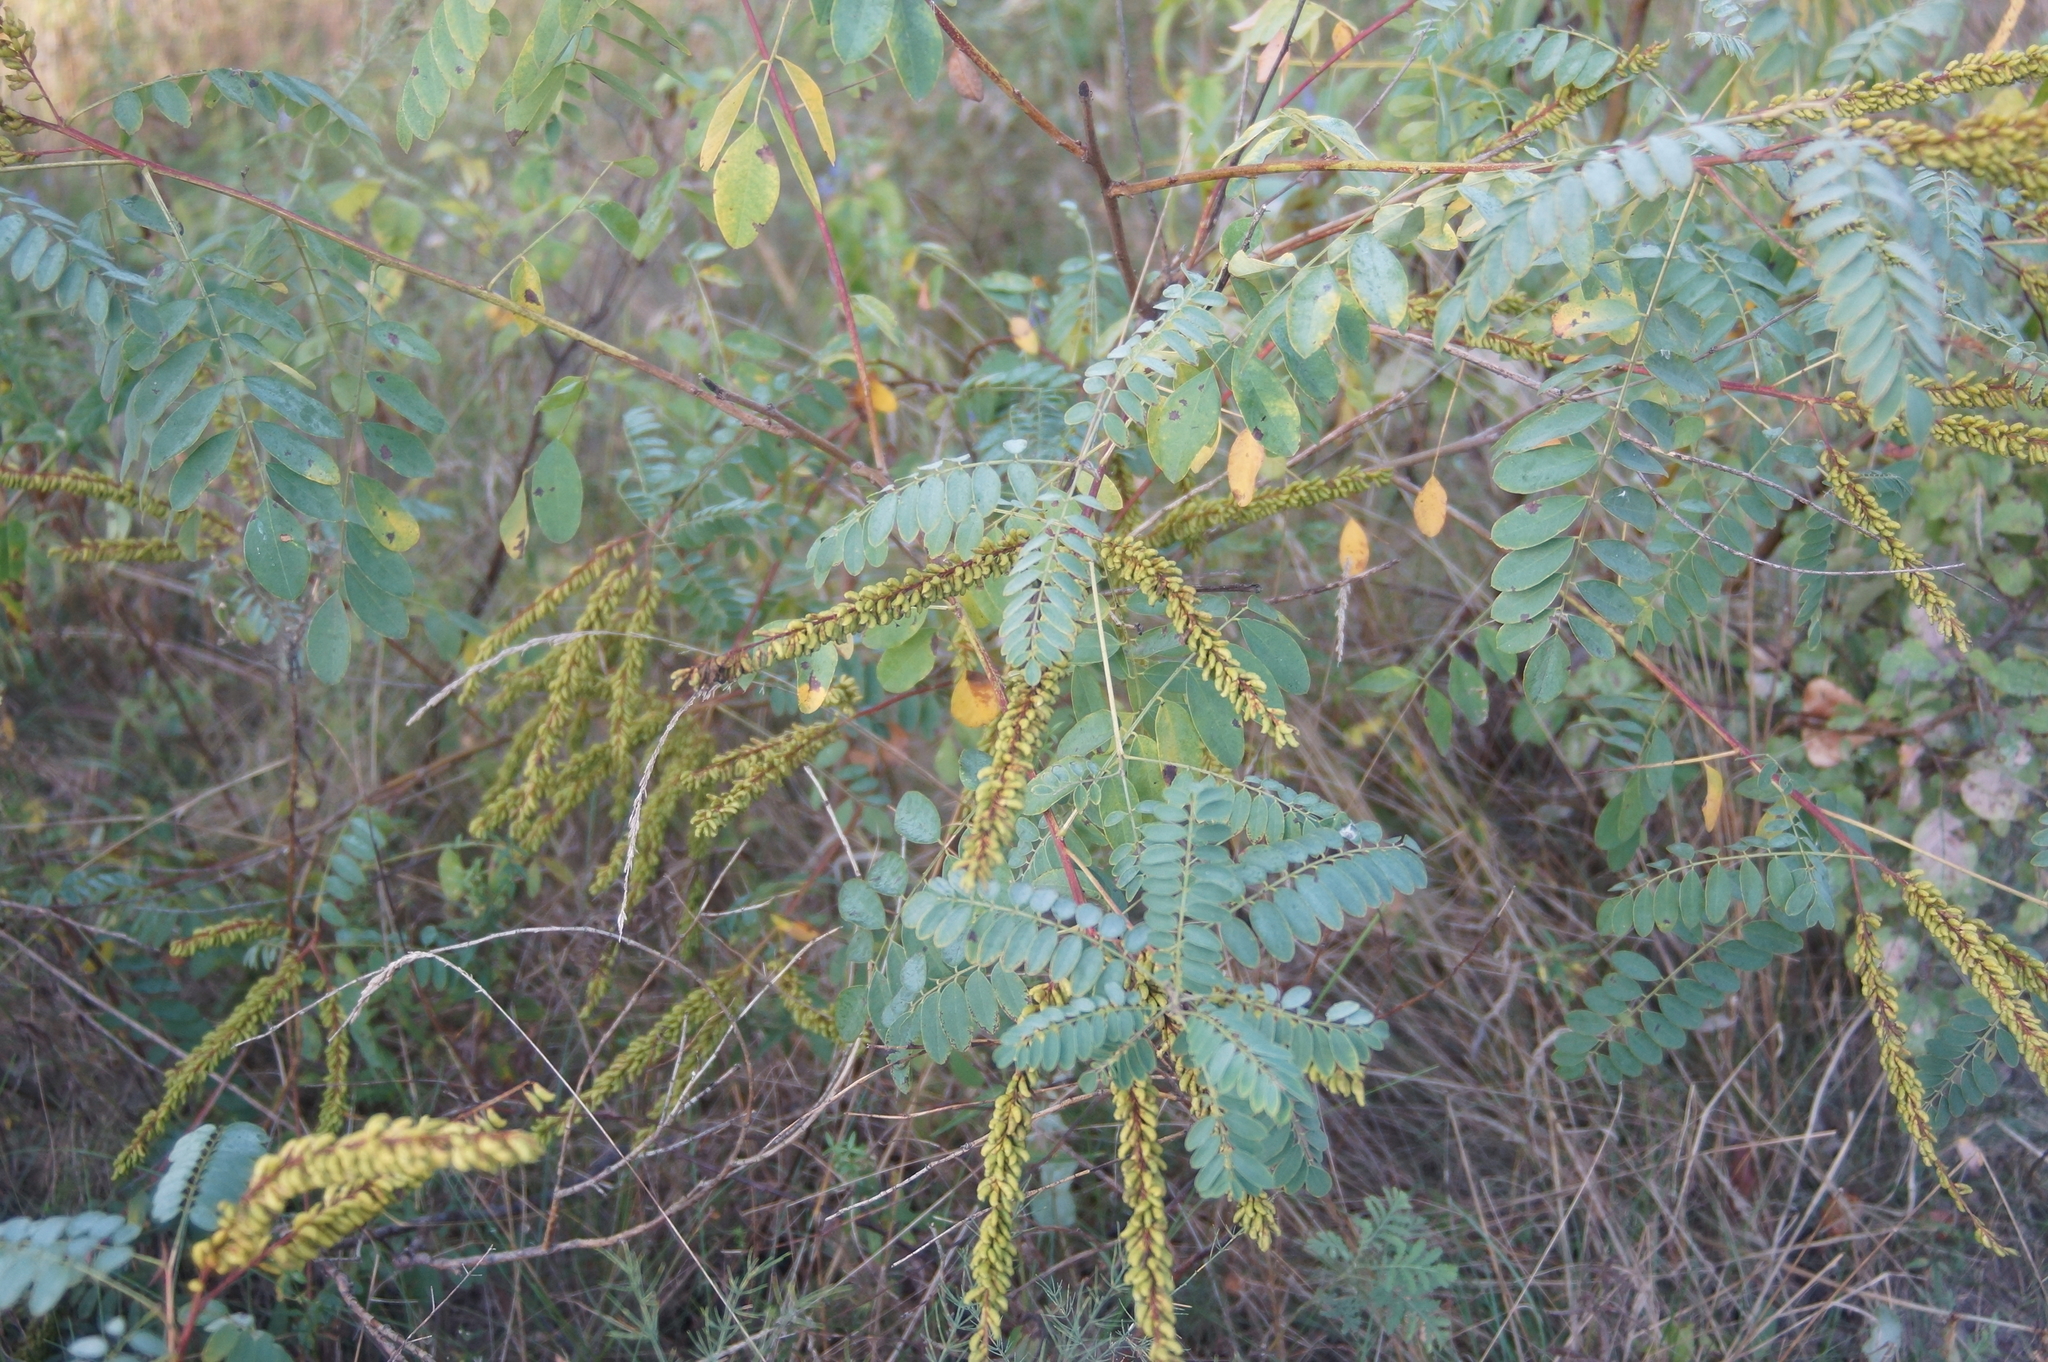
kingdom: Plantae
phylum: Tracheophyta
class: Magnoliopsida
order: Fabales
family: Fabaceae
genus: Amorpha
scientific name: Amorpha fruticosa
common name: False indigo
